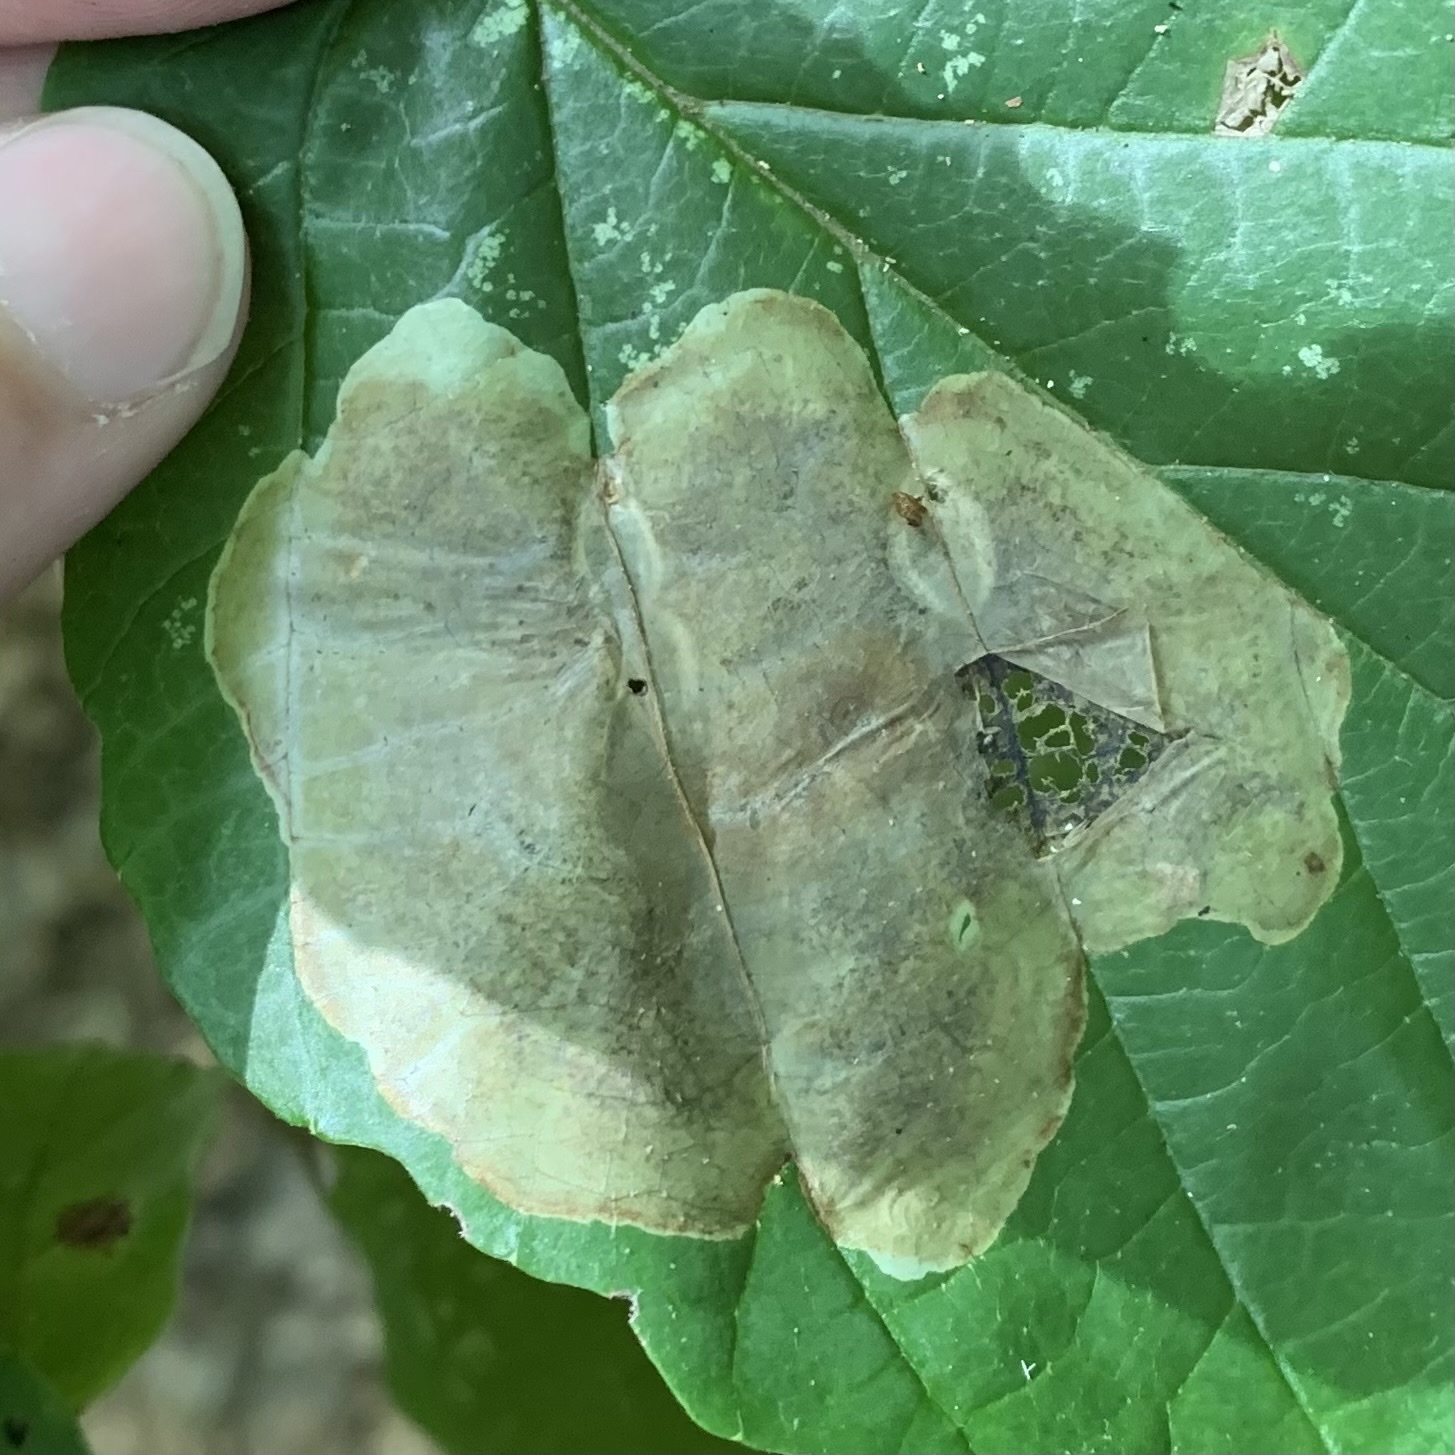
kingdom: Animalia
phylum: Arthropoda
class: Insecta
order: Lepidoptera
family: Gracillariidae
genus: Cameraria
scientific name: Cameraria hamameliella
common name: Witchhazel leafminer
